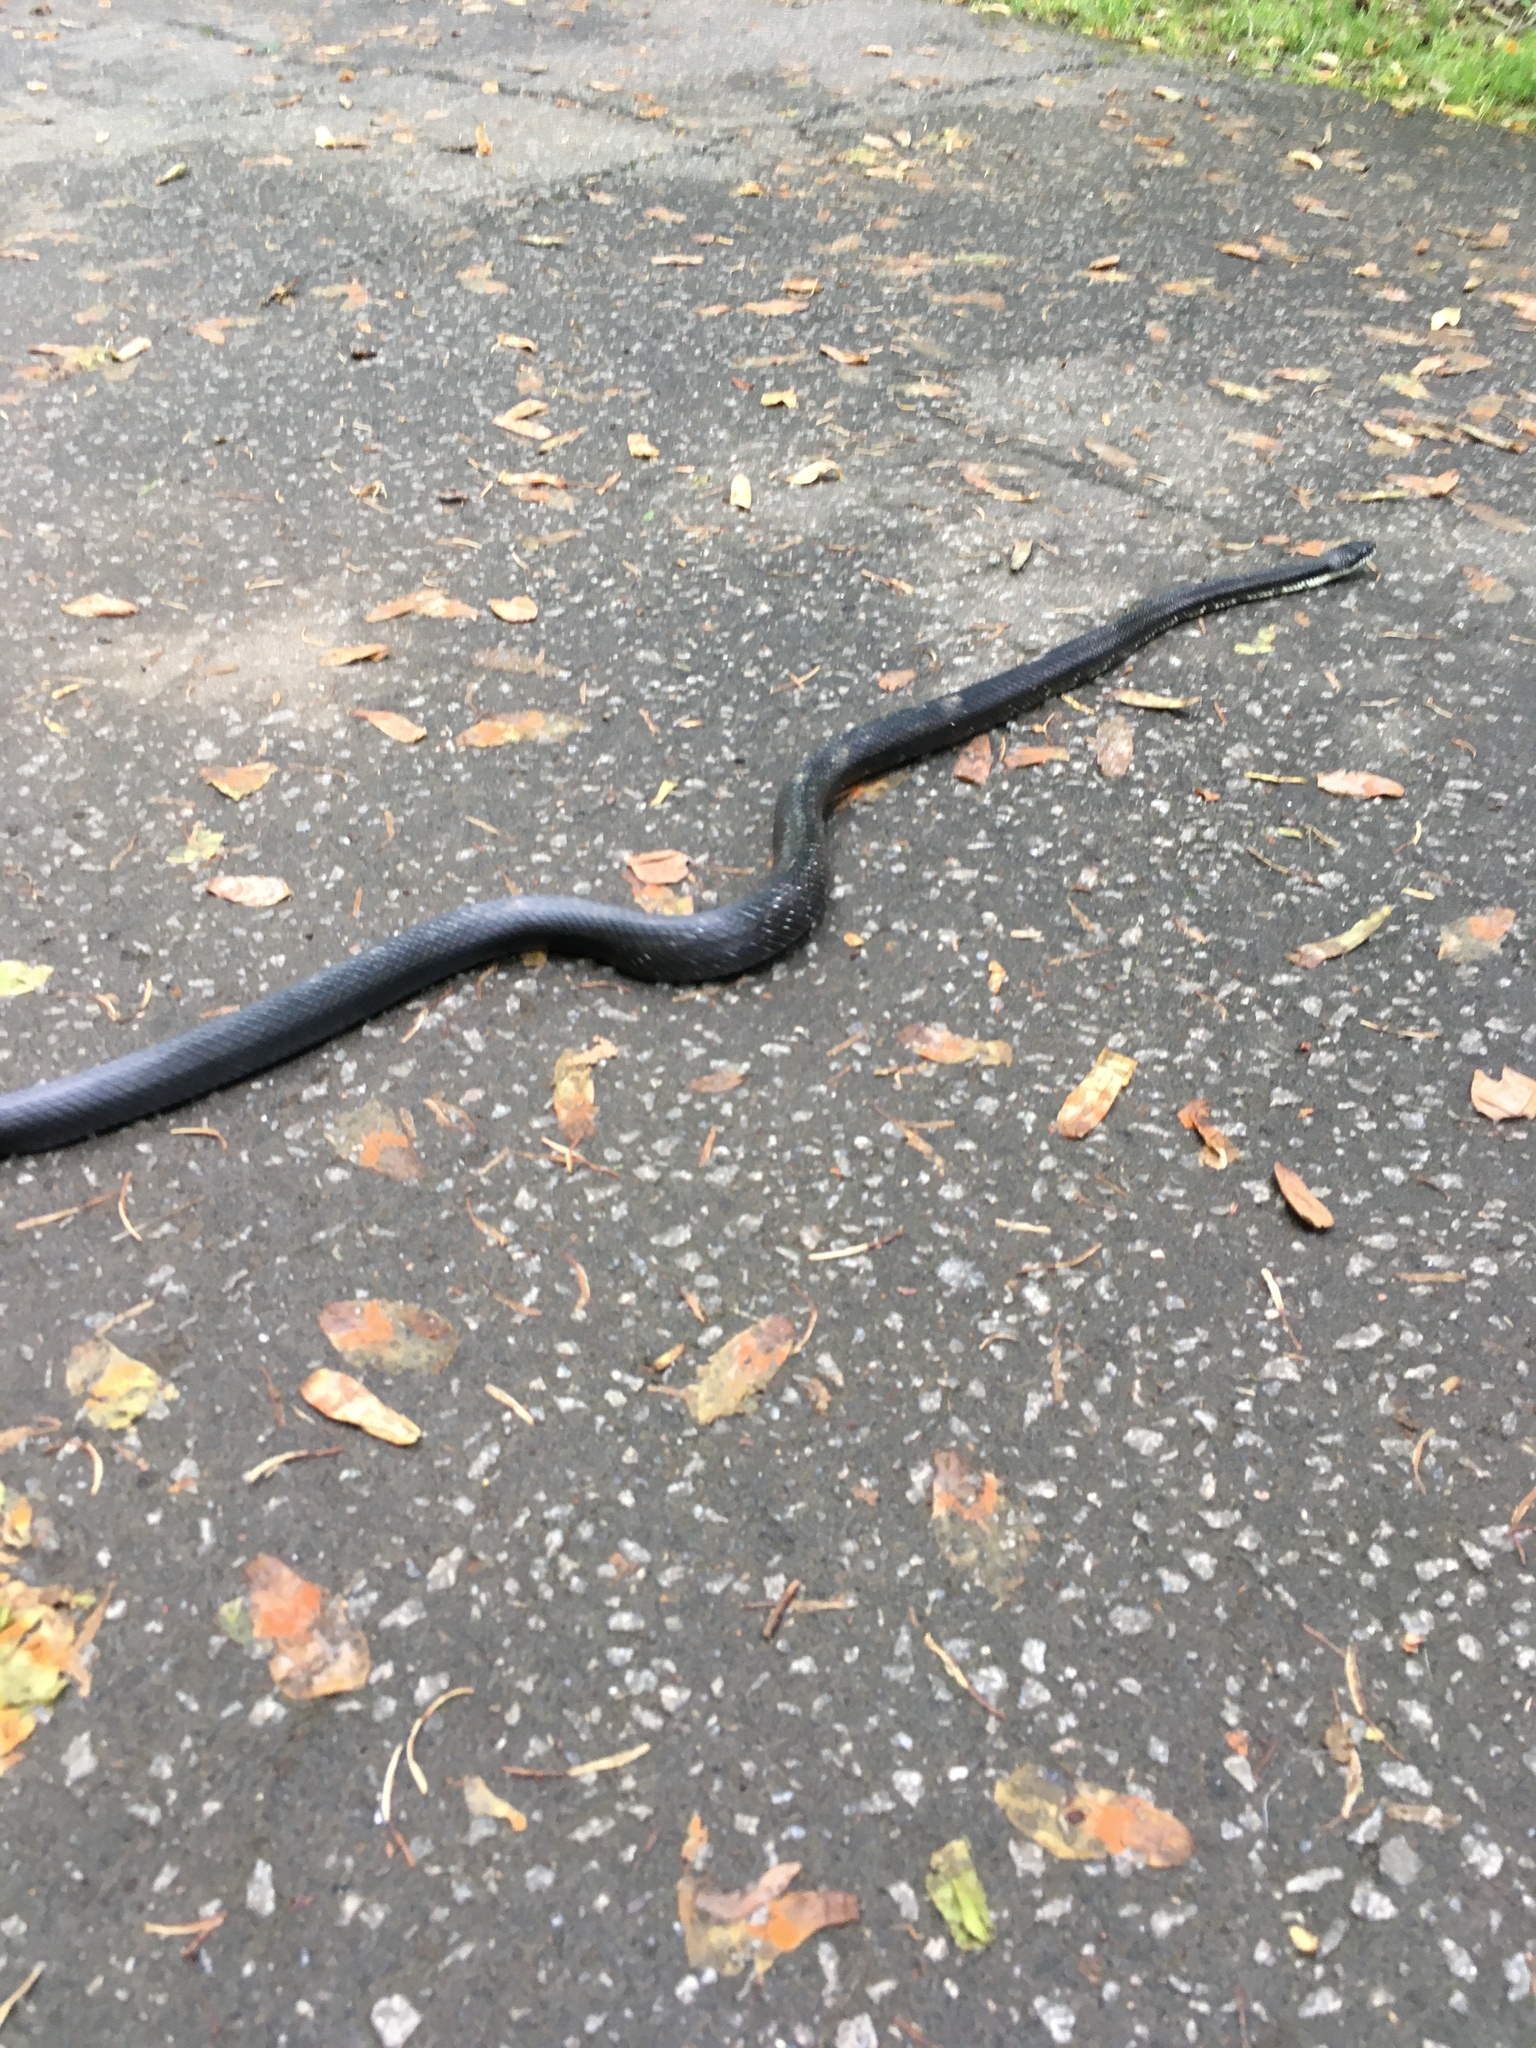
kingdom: Animalia
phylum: Chordata
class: Squamata
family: Colubridae
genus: Pantherophis
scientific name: Pantherophis
